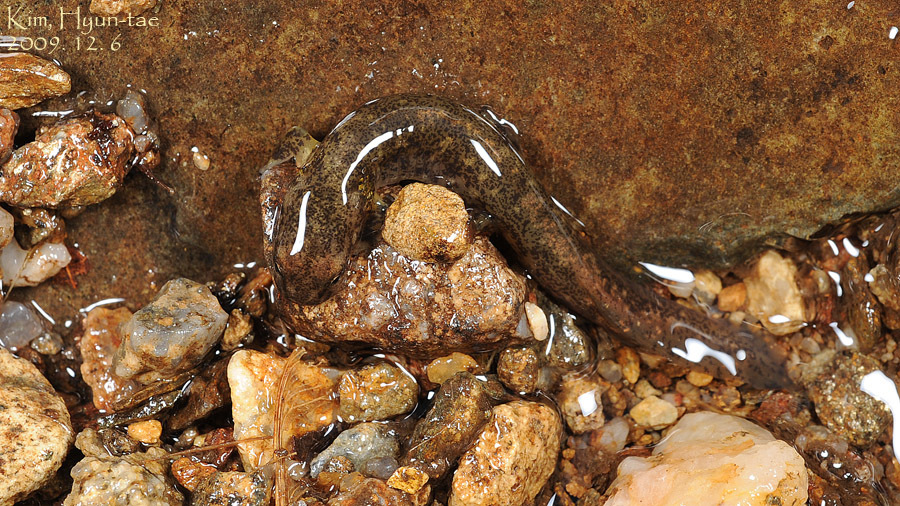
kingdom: Animalia
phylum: Chordata
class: Amphibia
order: Caudata
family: Hynobiidae
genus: Onychodactylus
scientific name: Onychodactylus koreanus
